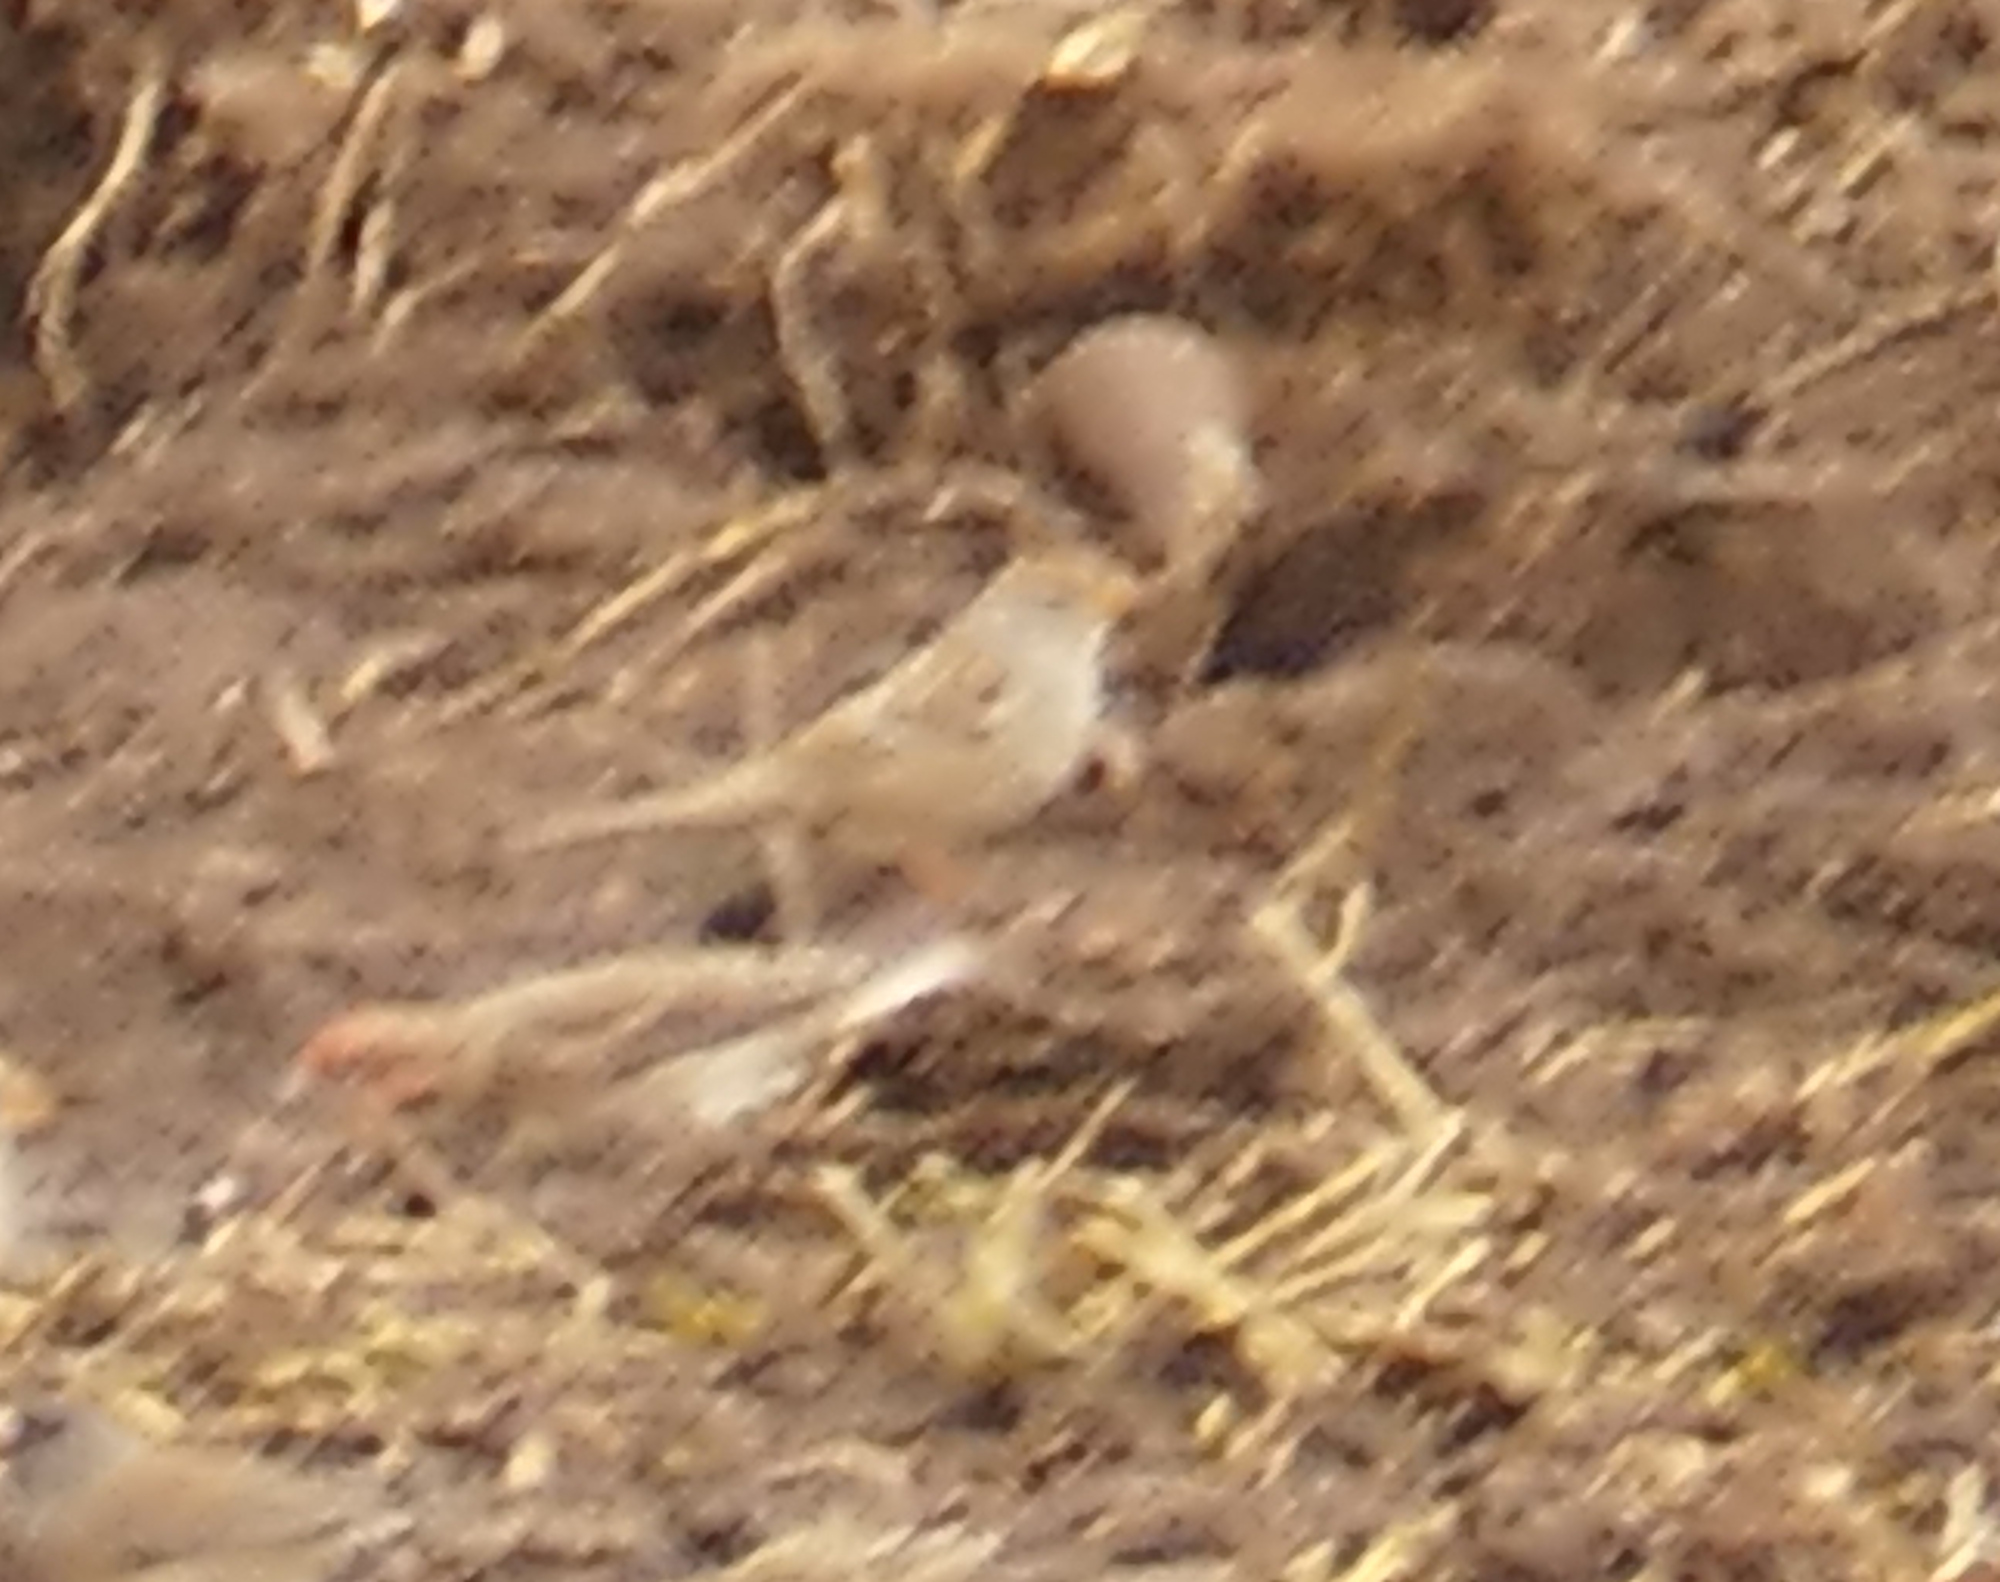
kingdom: Animalia
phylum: Chordata
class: Aves
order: Passeriformes
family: Passerellidae
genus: Zonotrichia
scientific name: Zonotrichia leucophrys
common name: White-crowned sparrow
